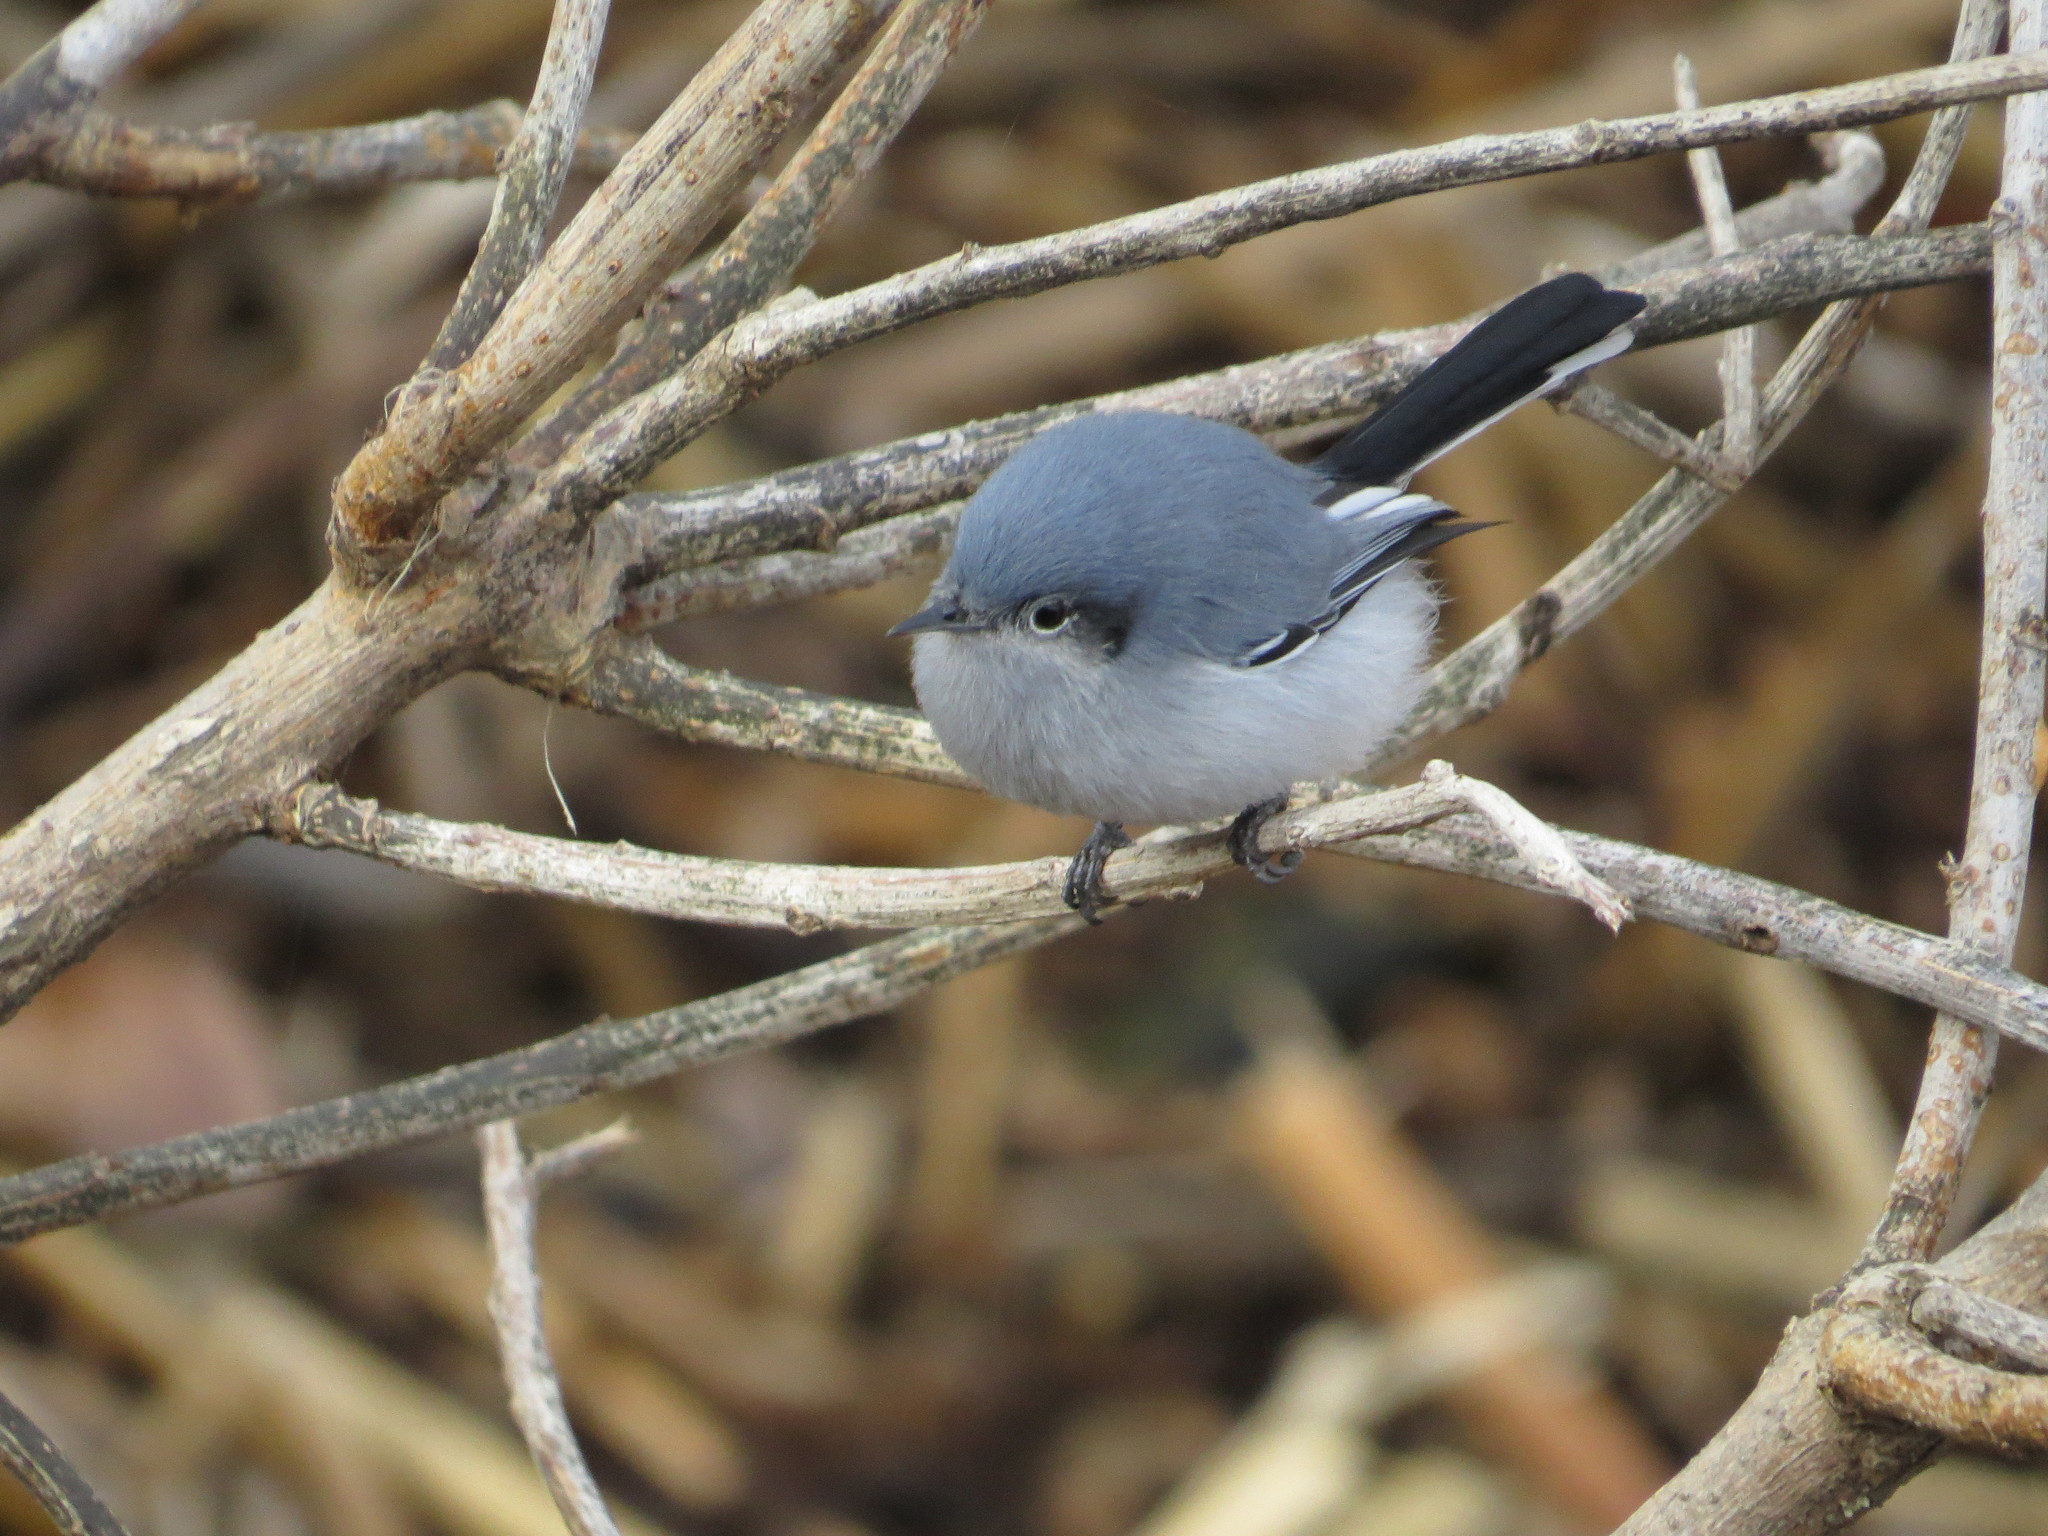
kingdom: Animalia
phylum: Chordata
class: Aves
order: Passeriformes
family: Polioptilidae
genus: Polioptila
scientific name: Polioptila dumicola
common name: Masked gnatcatcher
